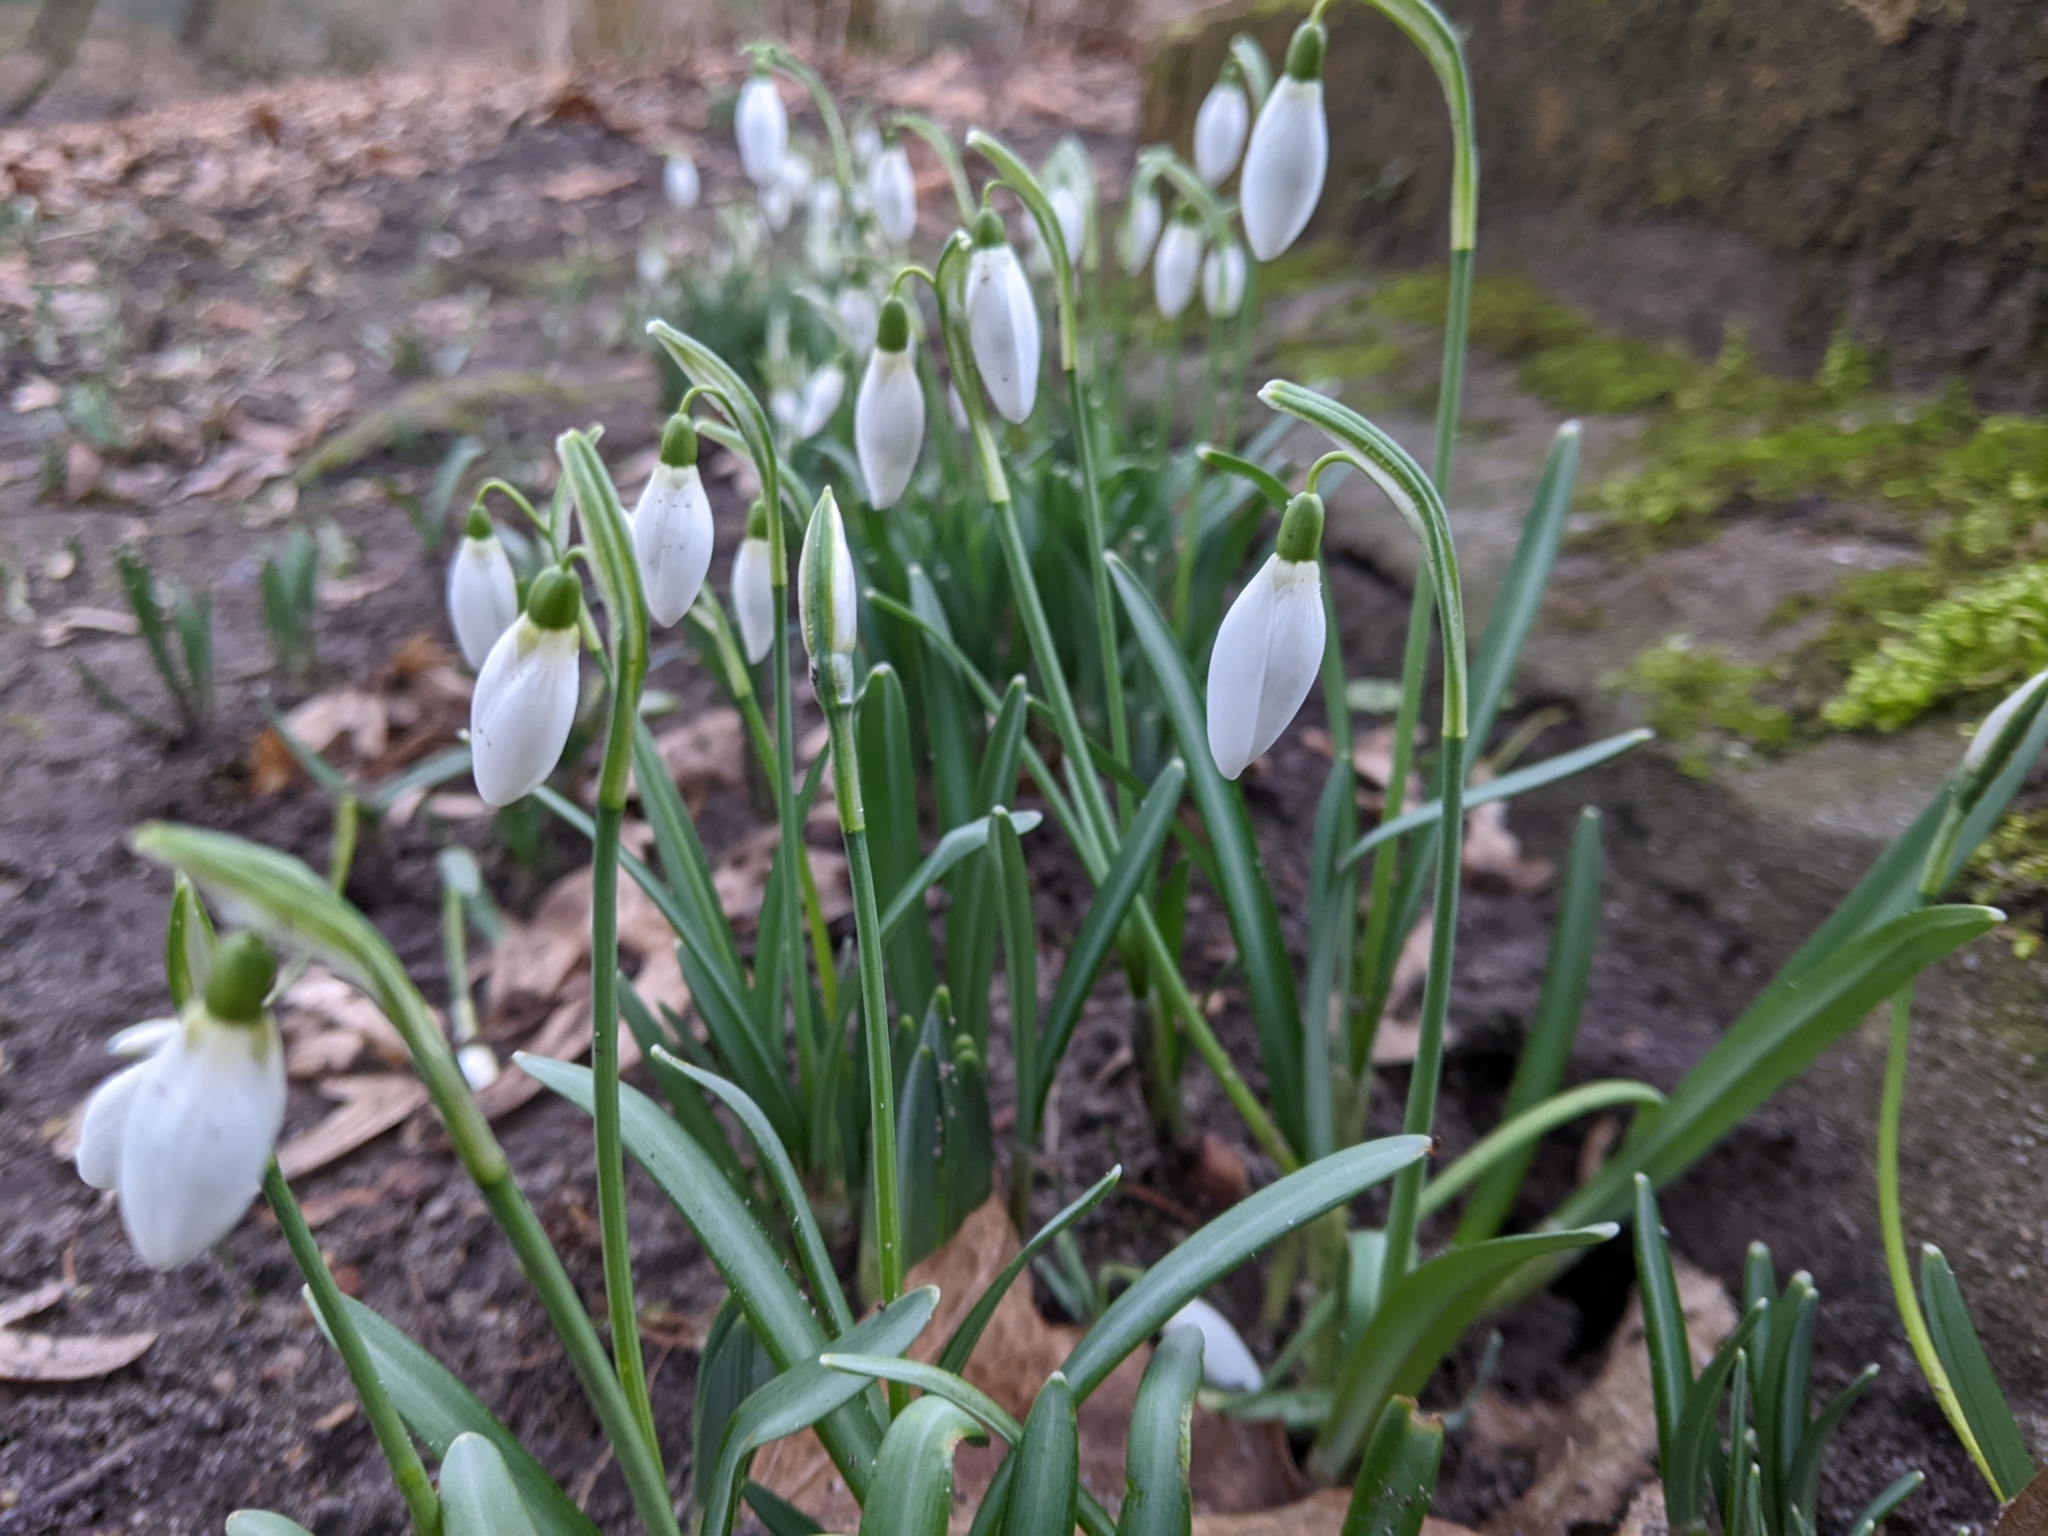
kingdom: Plantae
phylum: Tracheophyta
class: Liliopsida
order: Asparagales
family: Amaryllidaceae
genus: Galanthus
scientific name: Galanthus nivalis
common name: Snowdrop
